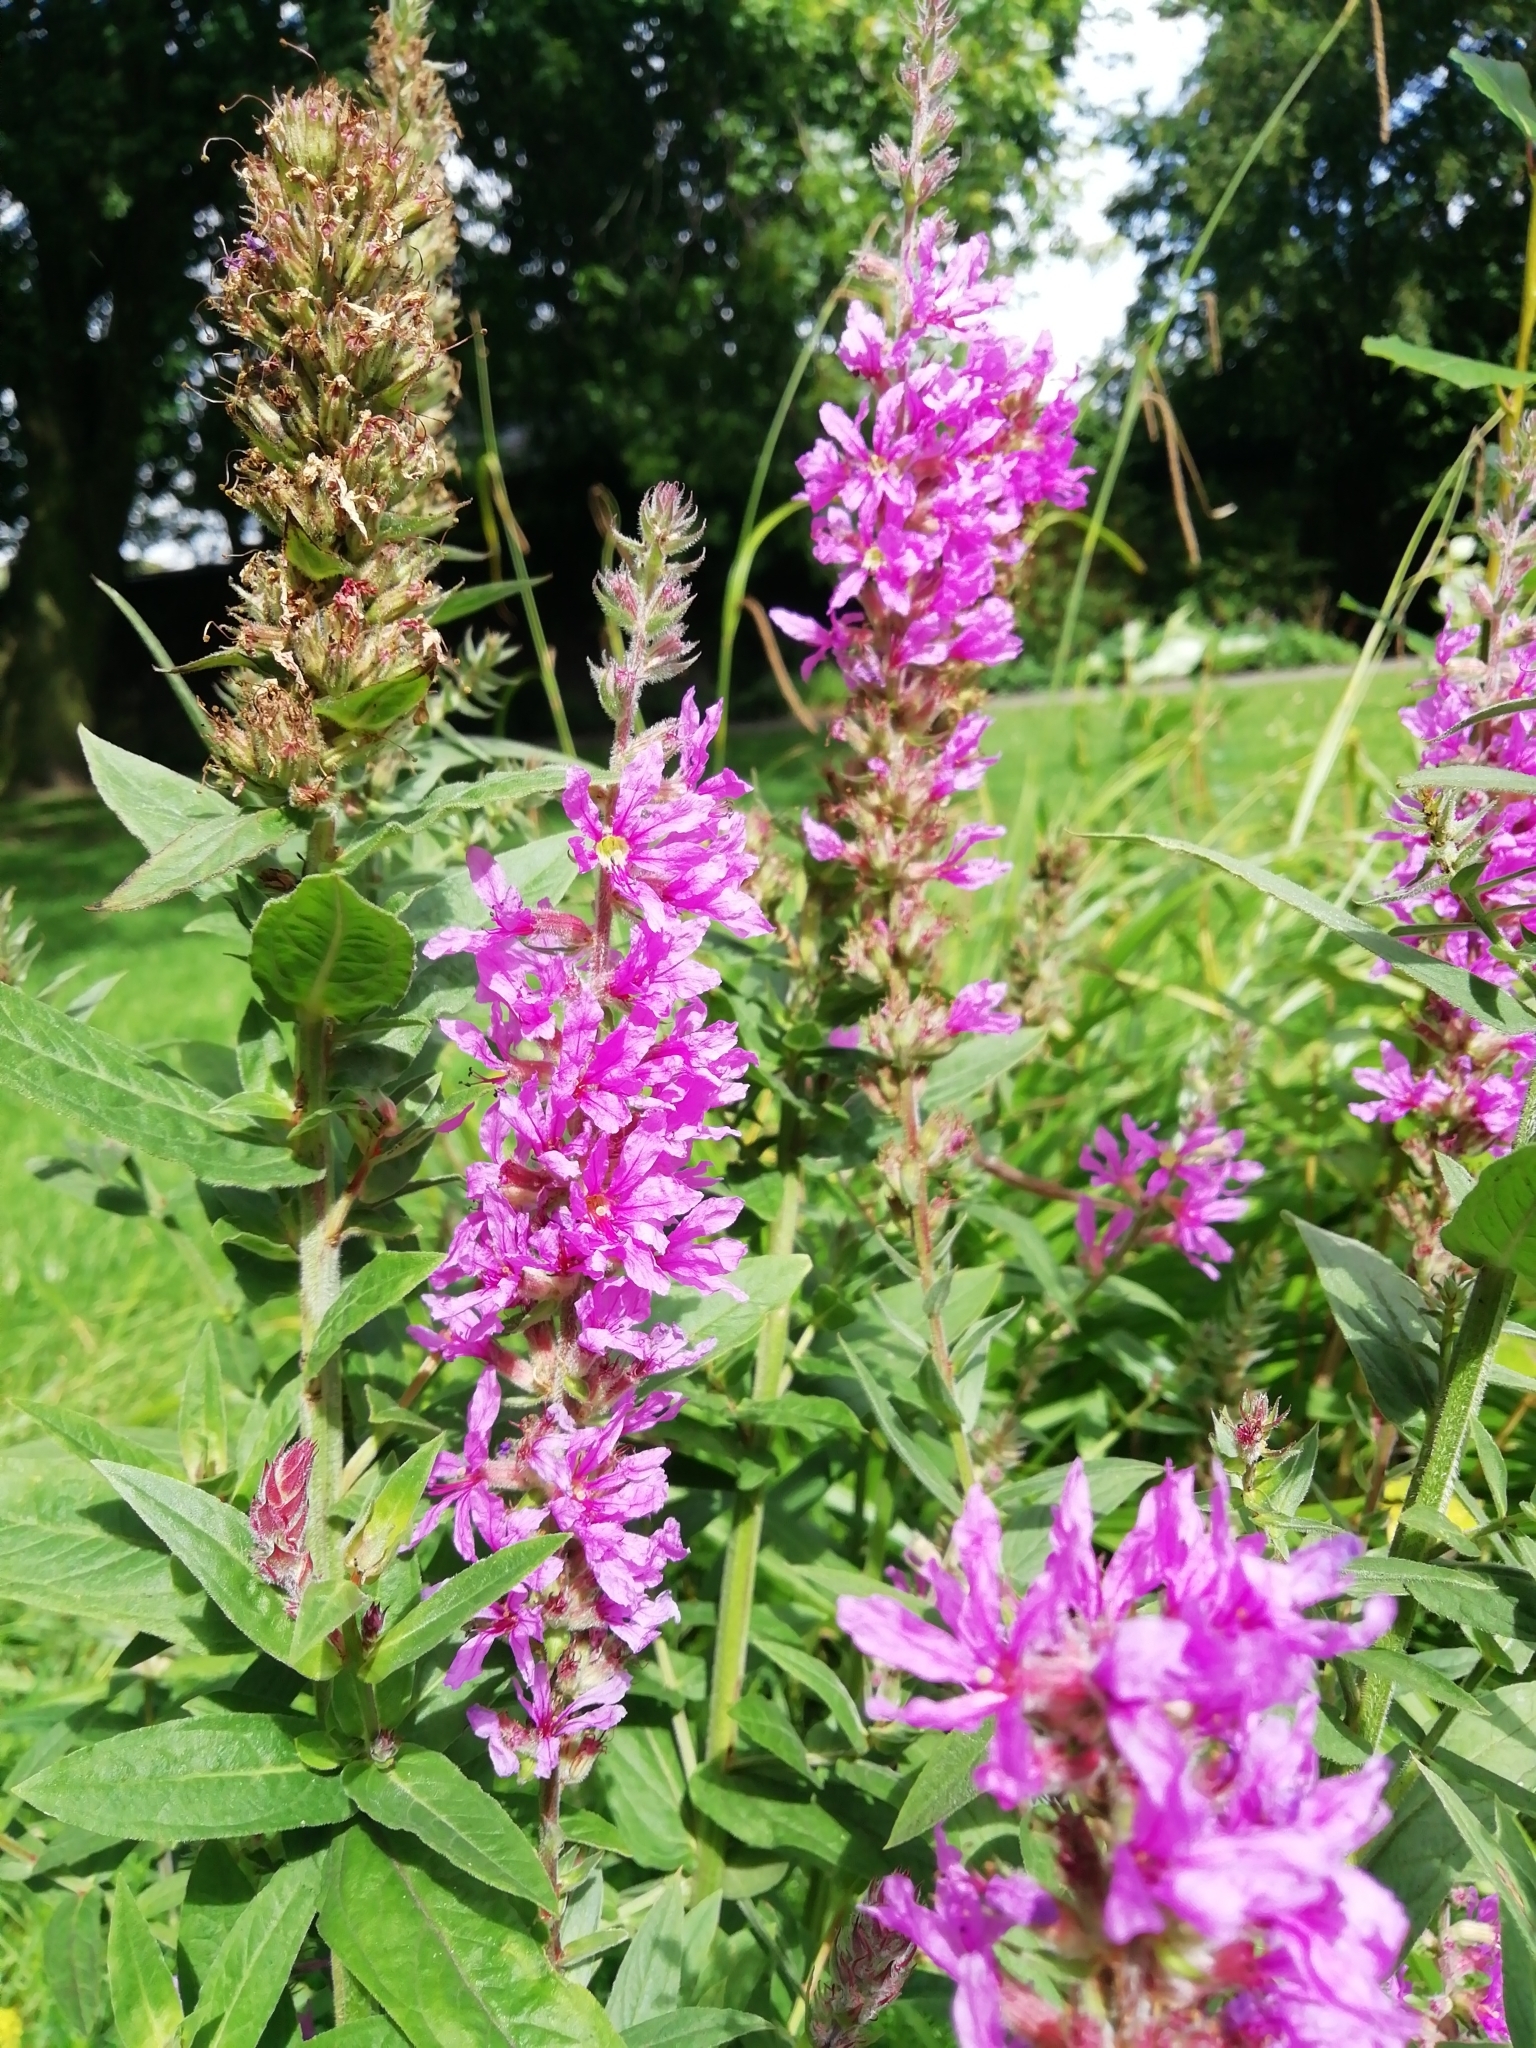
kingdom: Plantae
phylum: Tracheophyta
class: Magnoliopsida
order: Myrtales
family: Lythraceae
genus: Lythrum
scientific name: Lythrum salicaria
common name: Purple loosestrife
